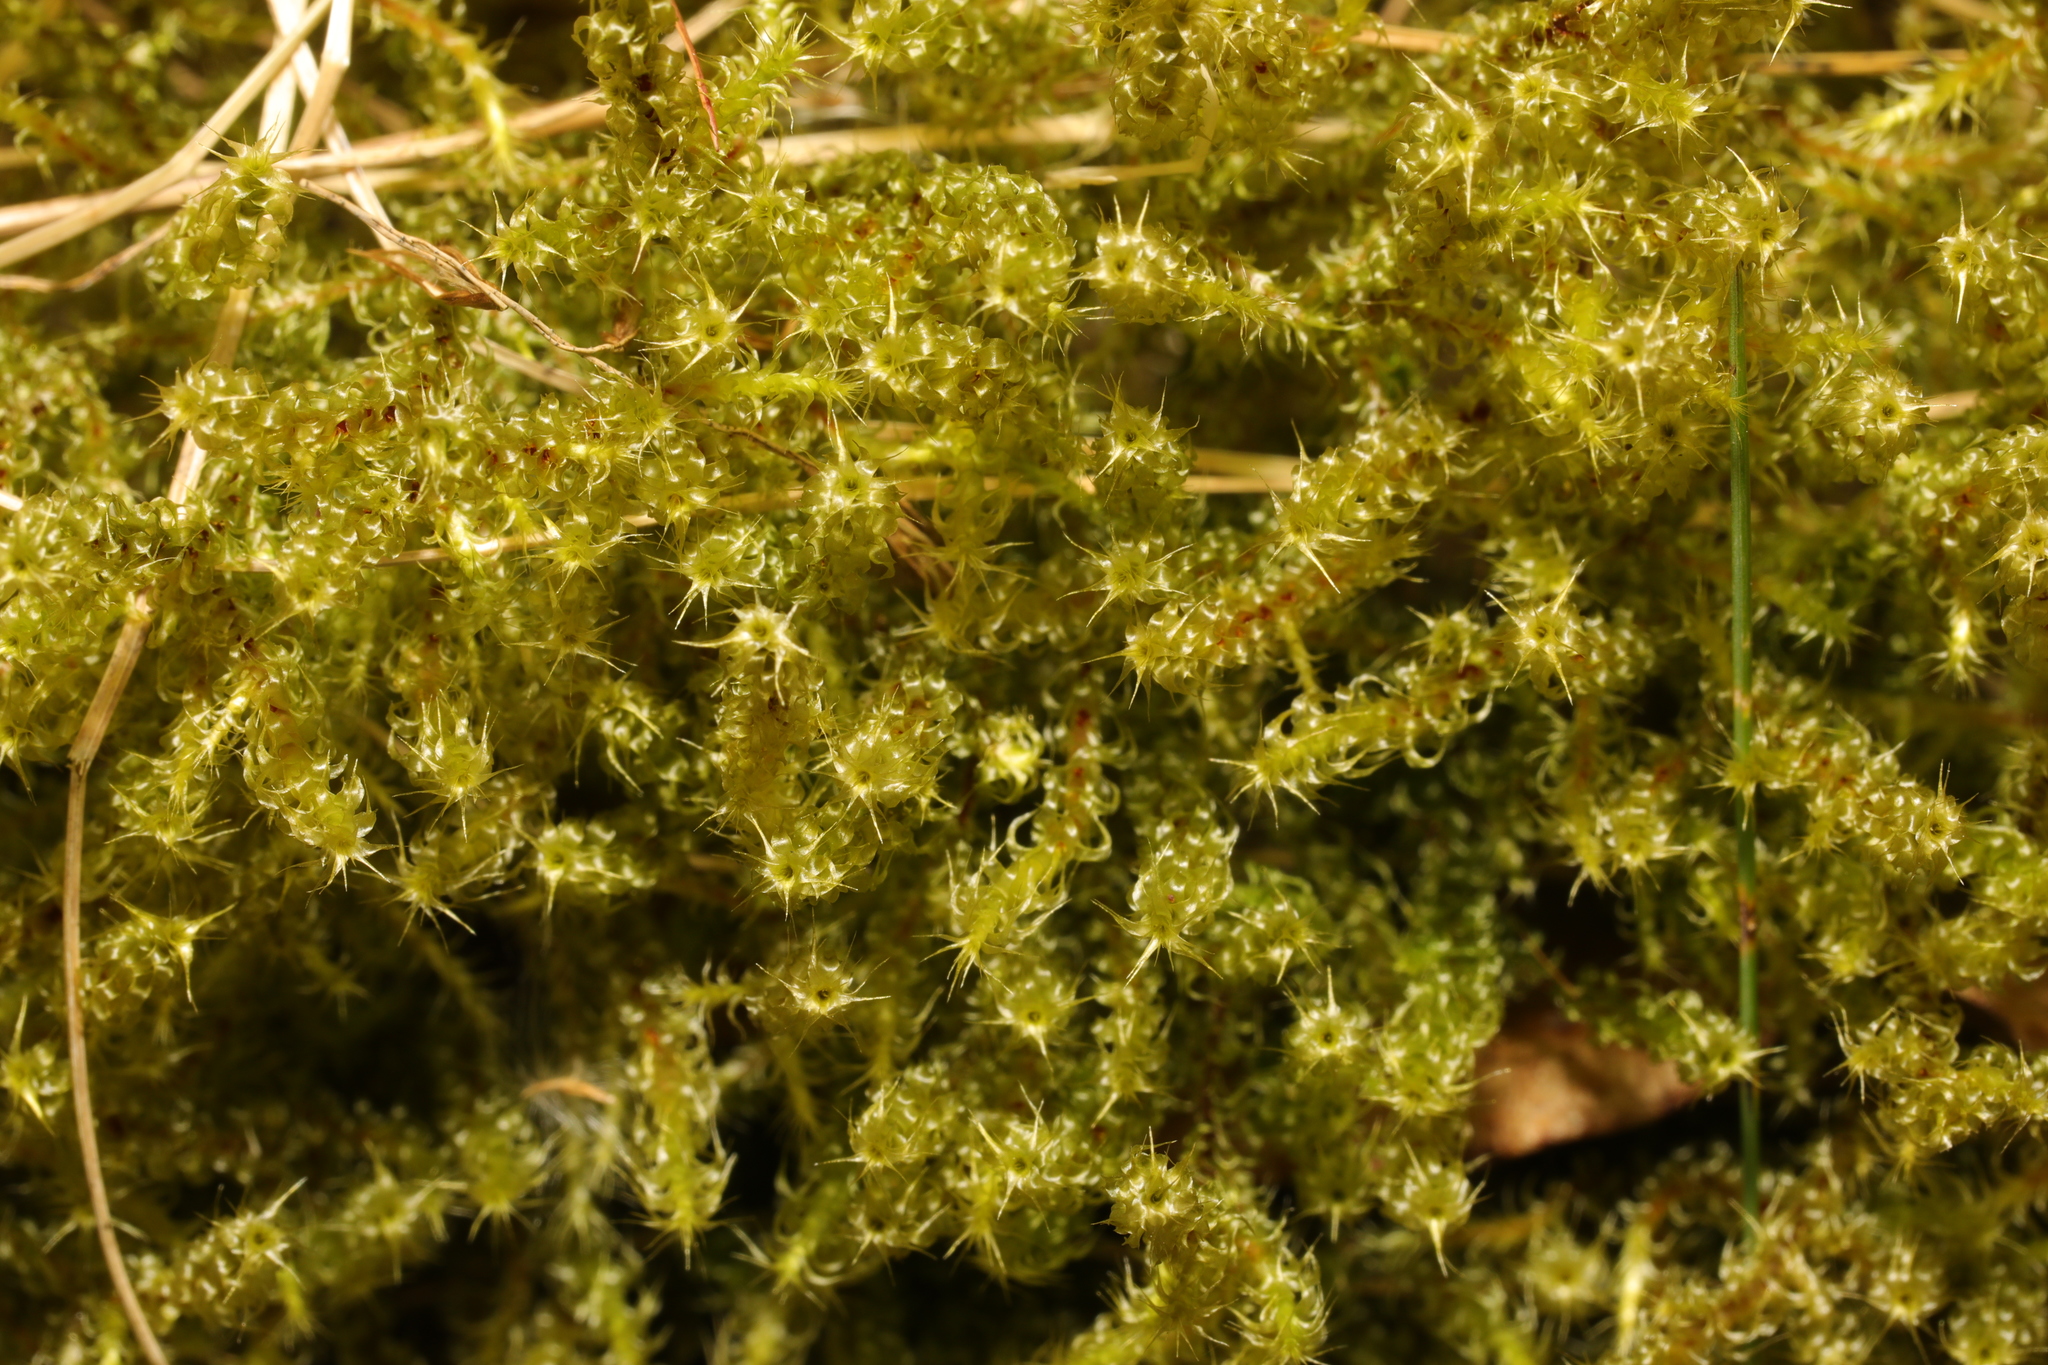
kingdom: Plantae
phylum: Bryophyta
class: Bryopsida
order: Hypnales
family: Hylocomiaceae
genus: Rhytidiadelphus
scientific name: Rhytidiadelphus squarrosus
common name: Springy turf-moss
